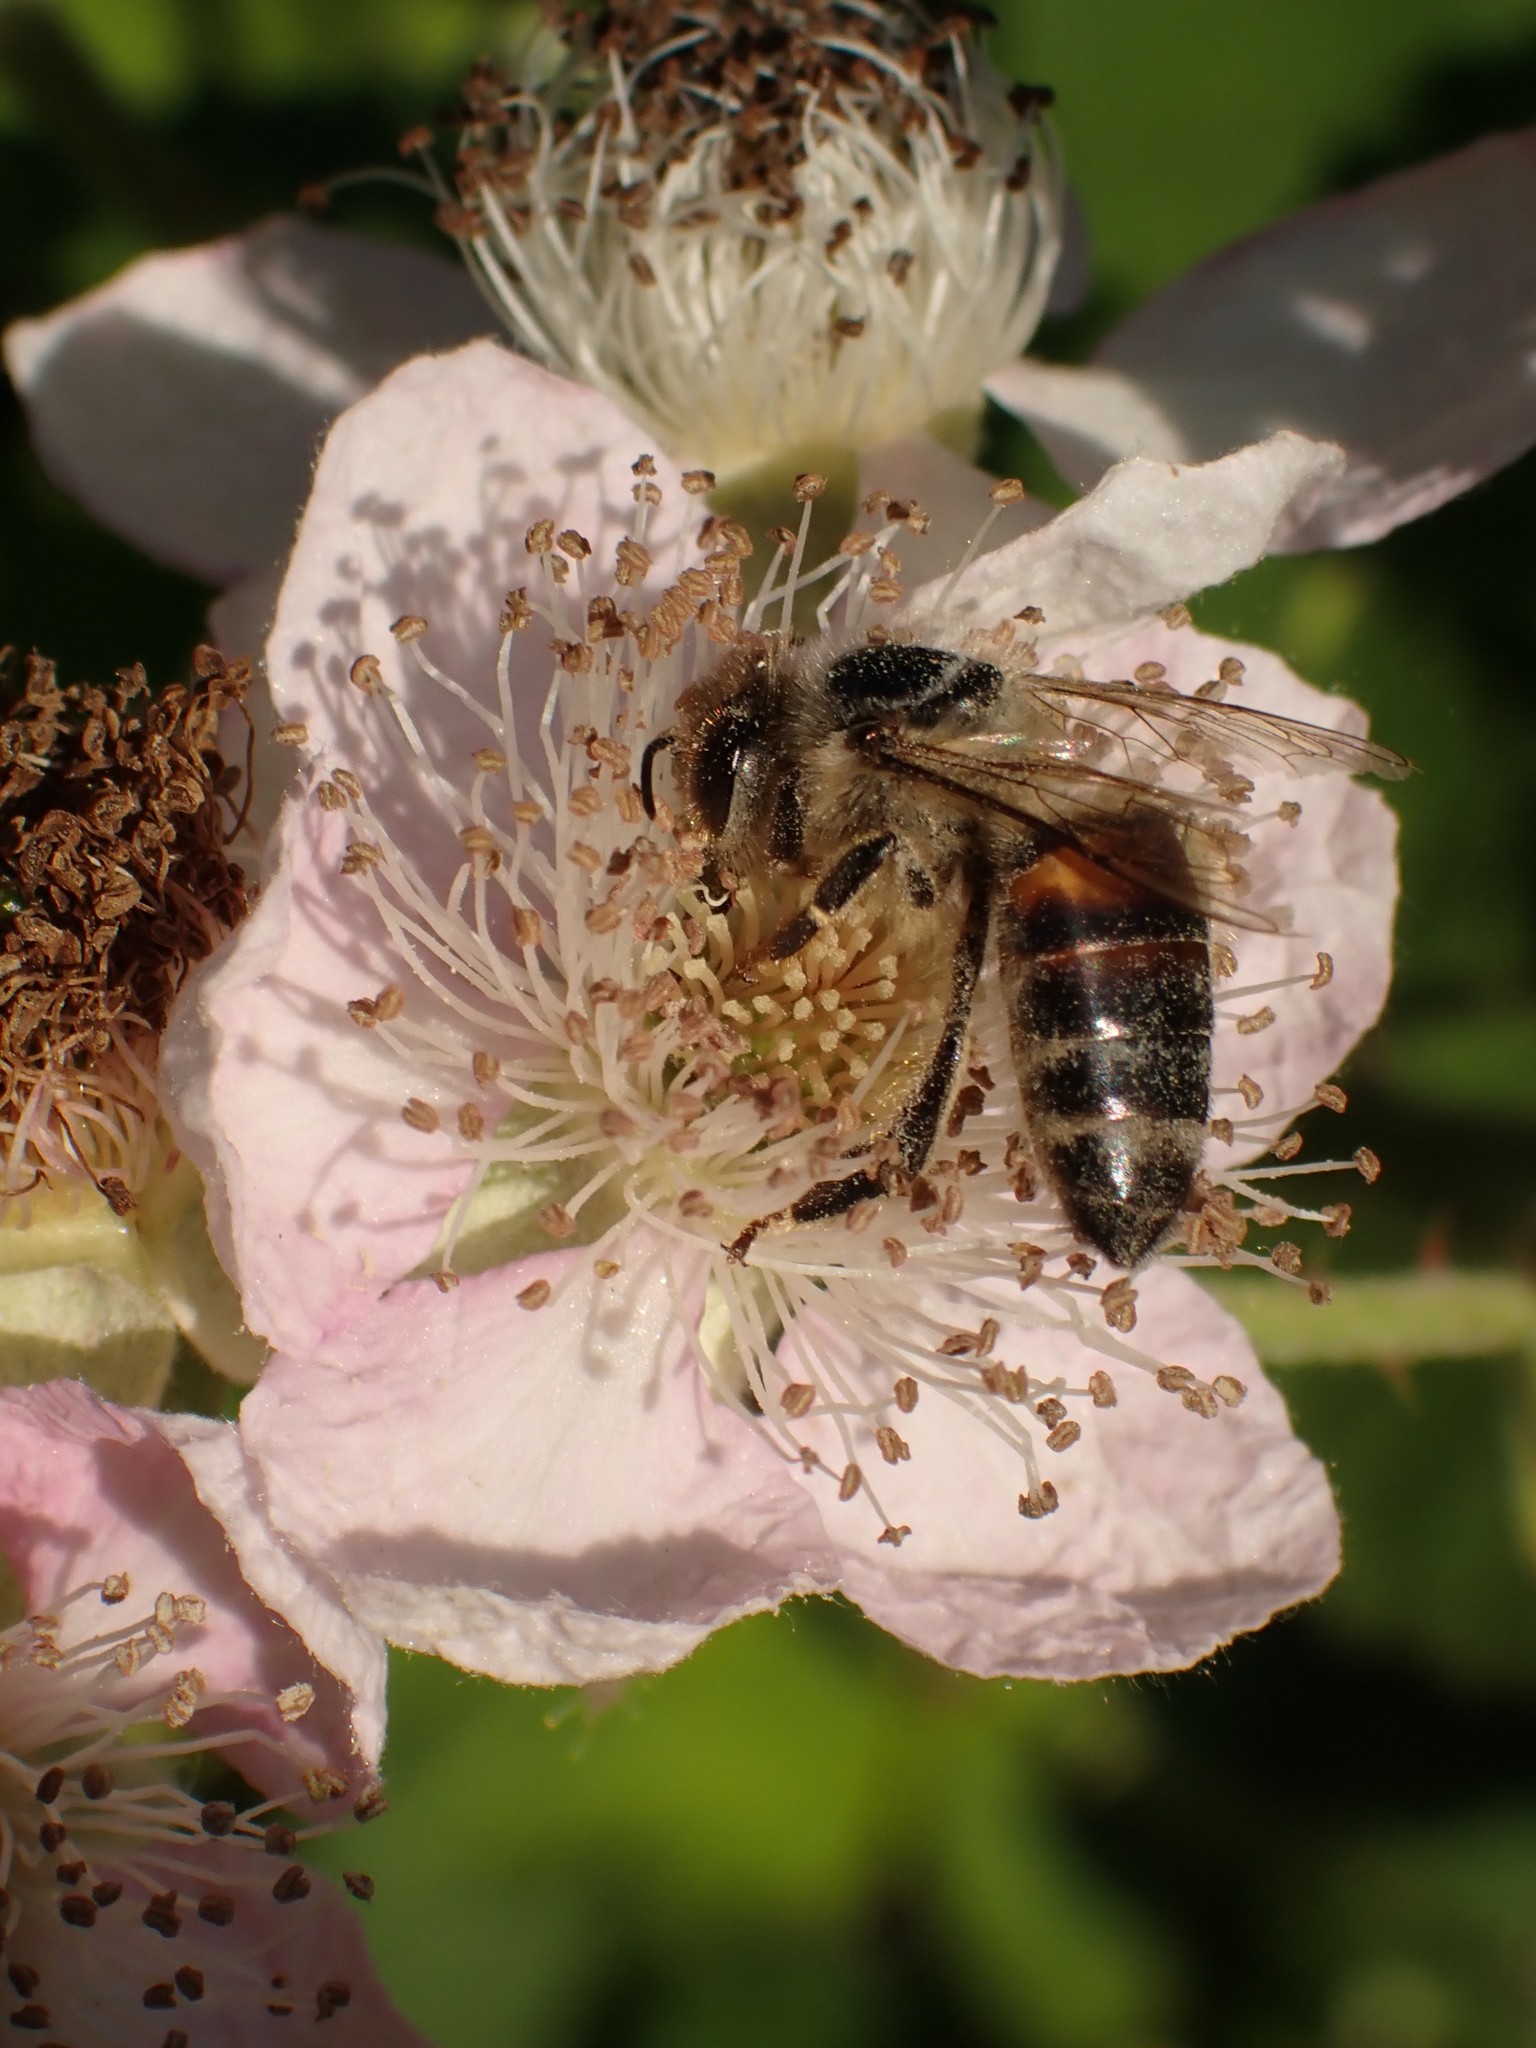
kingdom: Animalia
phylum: Arthropoda
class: Insecta
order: Hymenoptera
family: Apidae
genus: Apis
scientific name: Apis mellifera
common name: Honey bee
